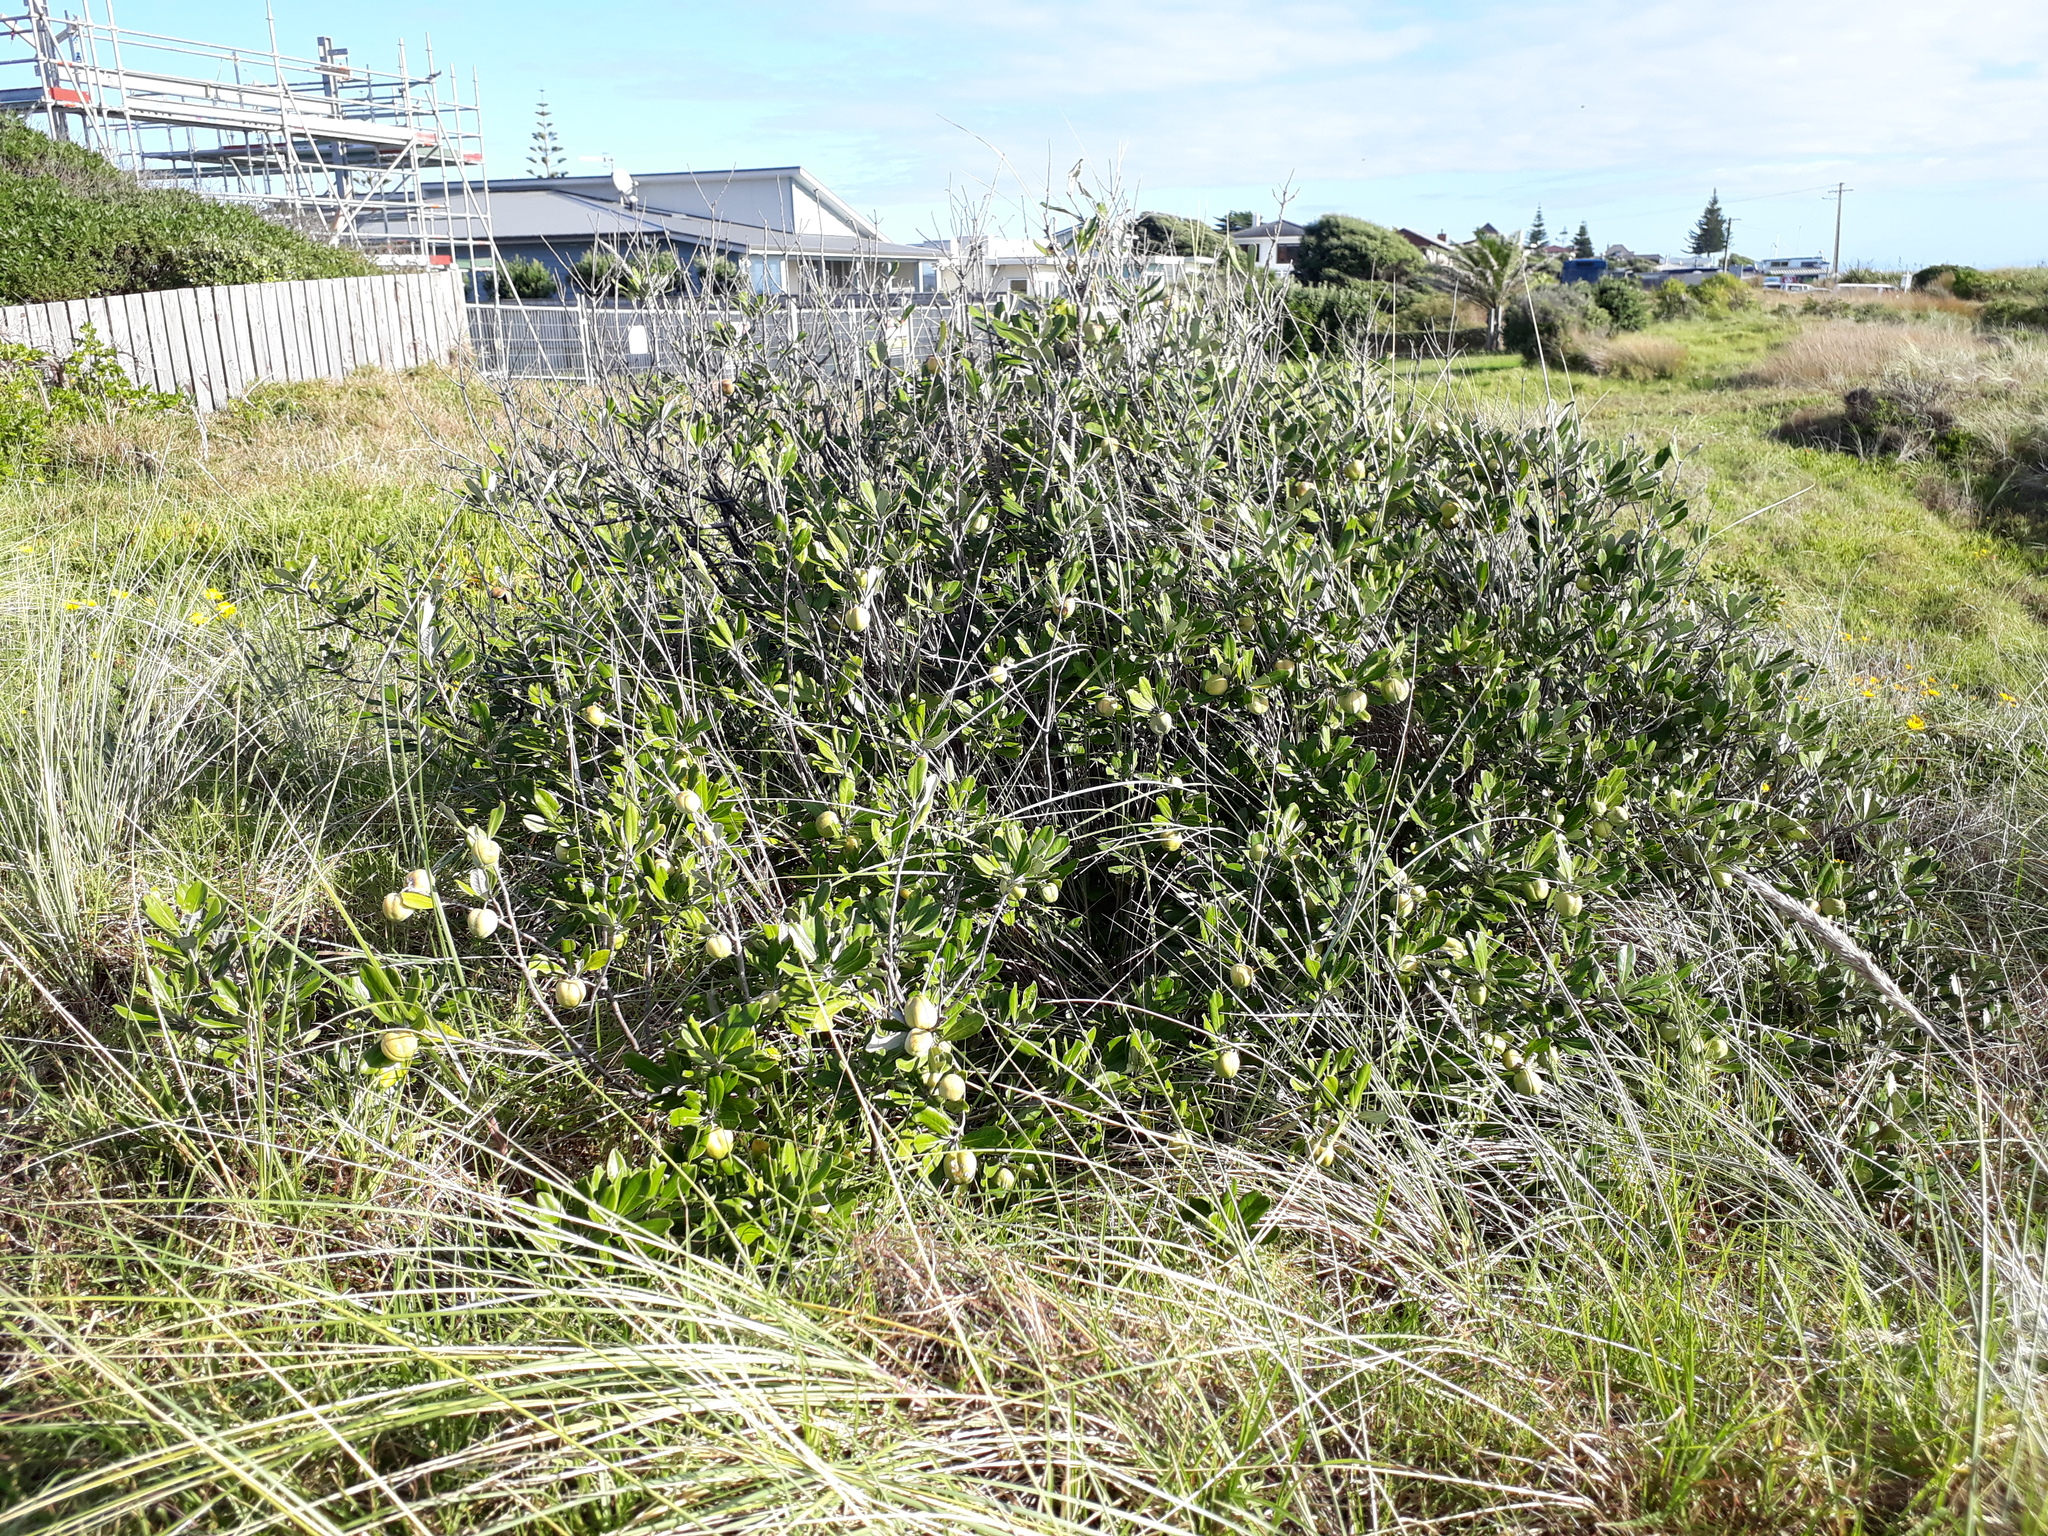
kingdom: Plantae
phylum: Tracheophyta
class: Magnoliopsida
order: Apiales
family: Pittosporaceae
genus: Pittosporum
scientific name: Pittosporum crassifolium
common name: Karo
